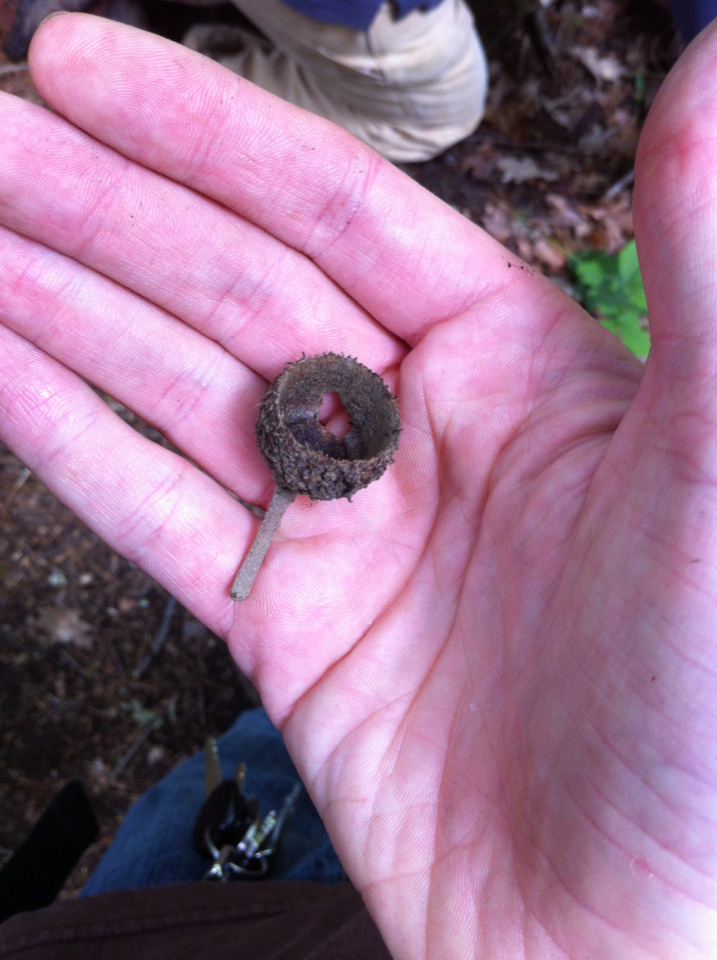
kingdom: Plantae
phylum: Tracheophyta
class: Magnoliopsida
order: Fagales
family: Fagaceae
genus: Quercus
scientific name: Quercus macrocarpa
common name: Bur oak
